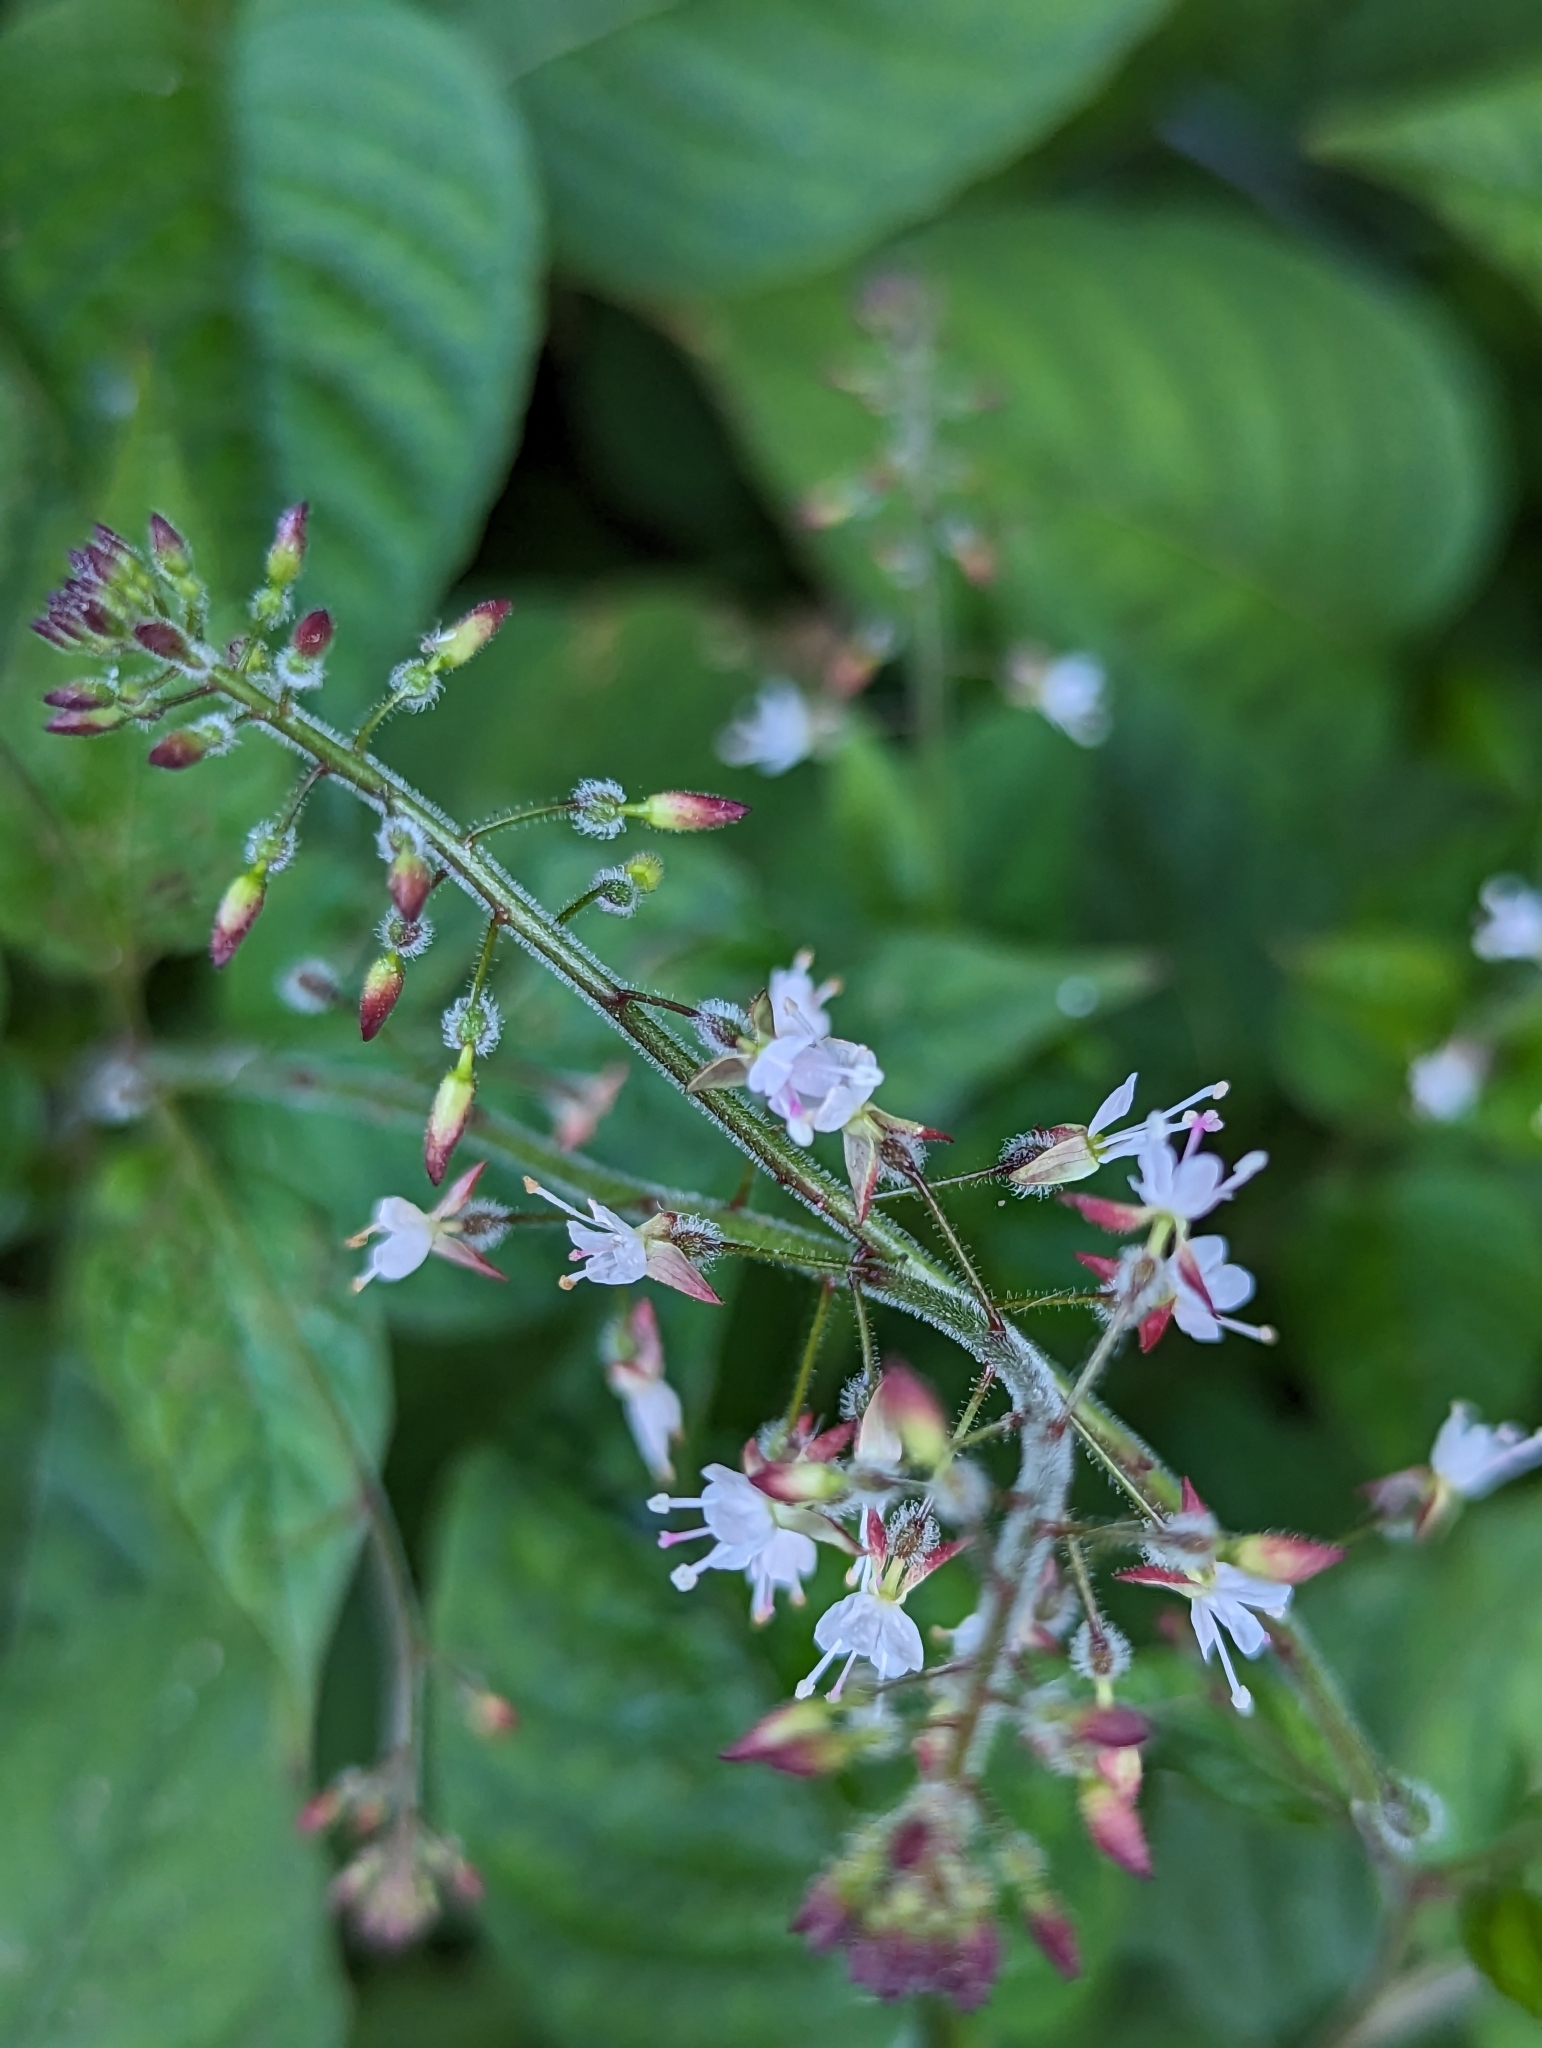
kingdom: Plantae
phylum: Tracheophyta
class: Magnoliopsida
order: Myrtales
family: Onagraceae
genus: Circaea
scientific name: Circaea lutetiana
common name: Enchanter's-nightshade
